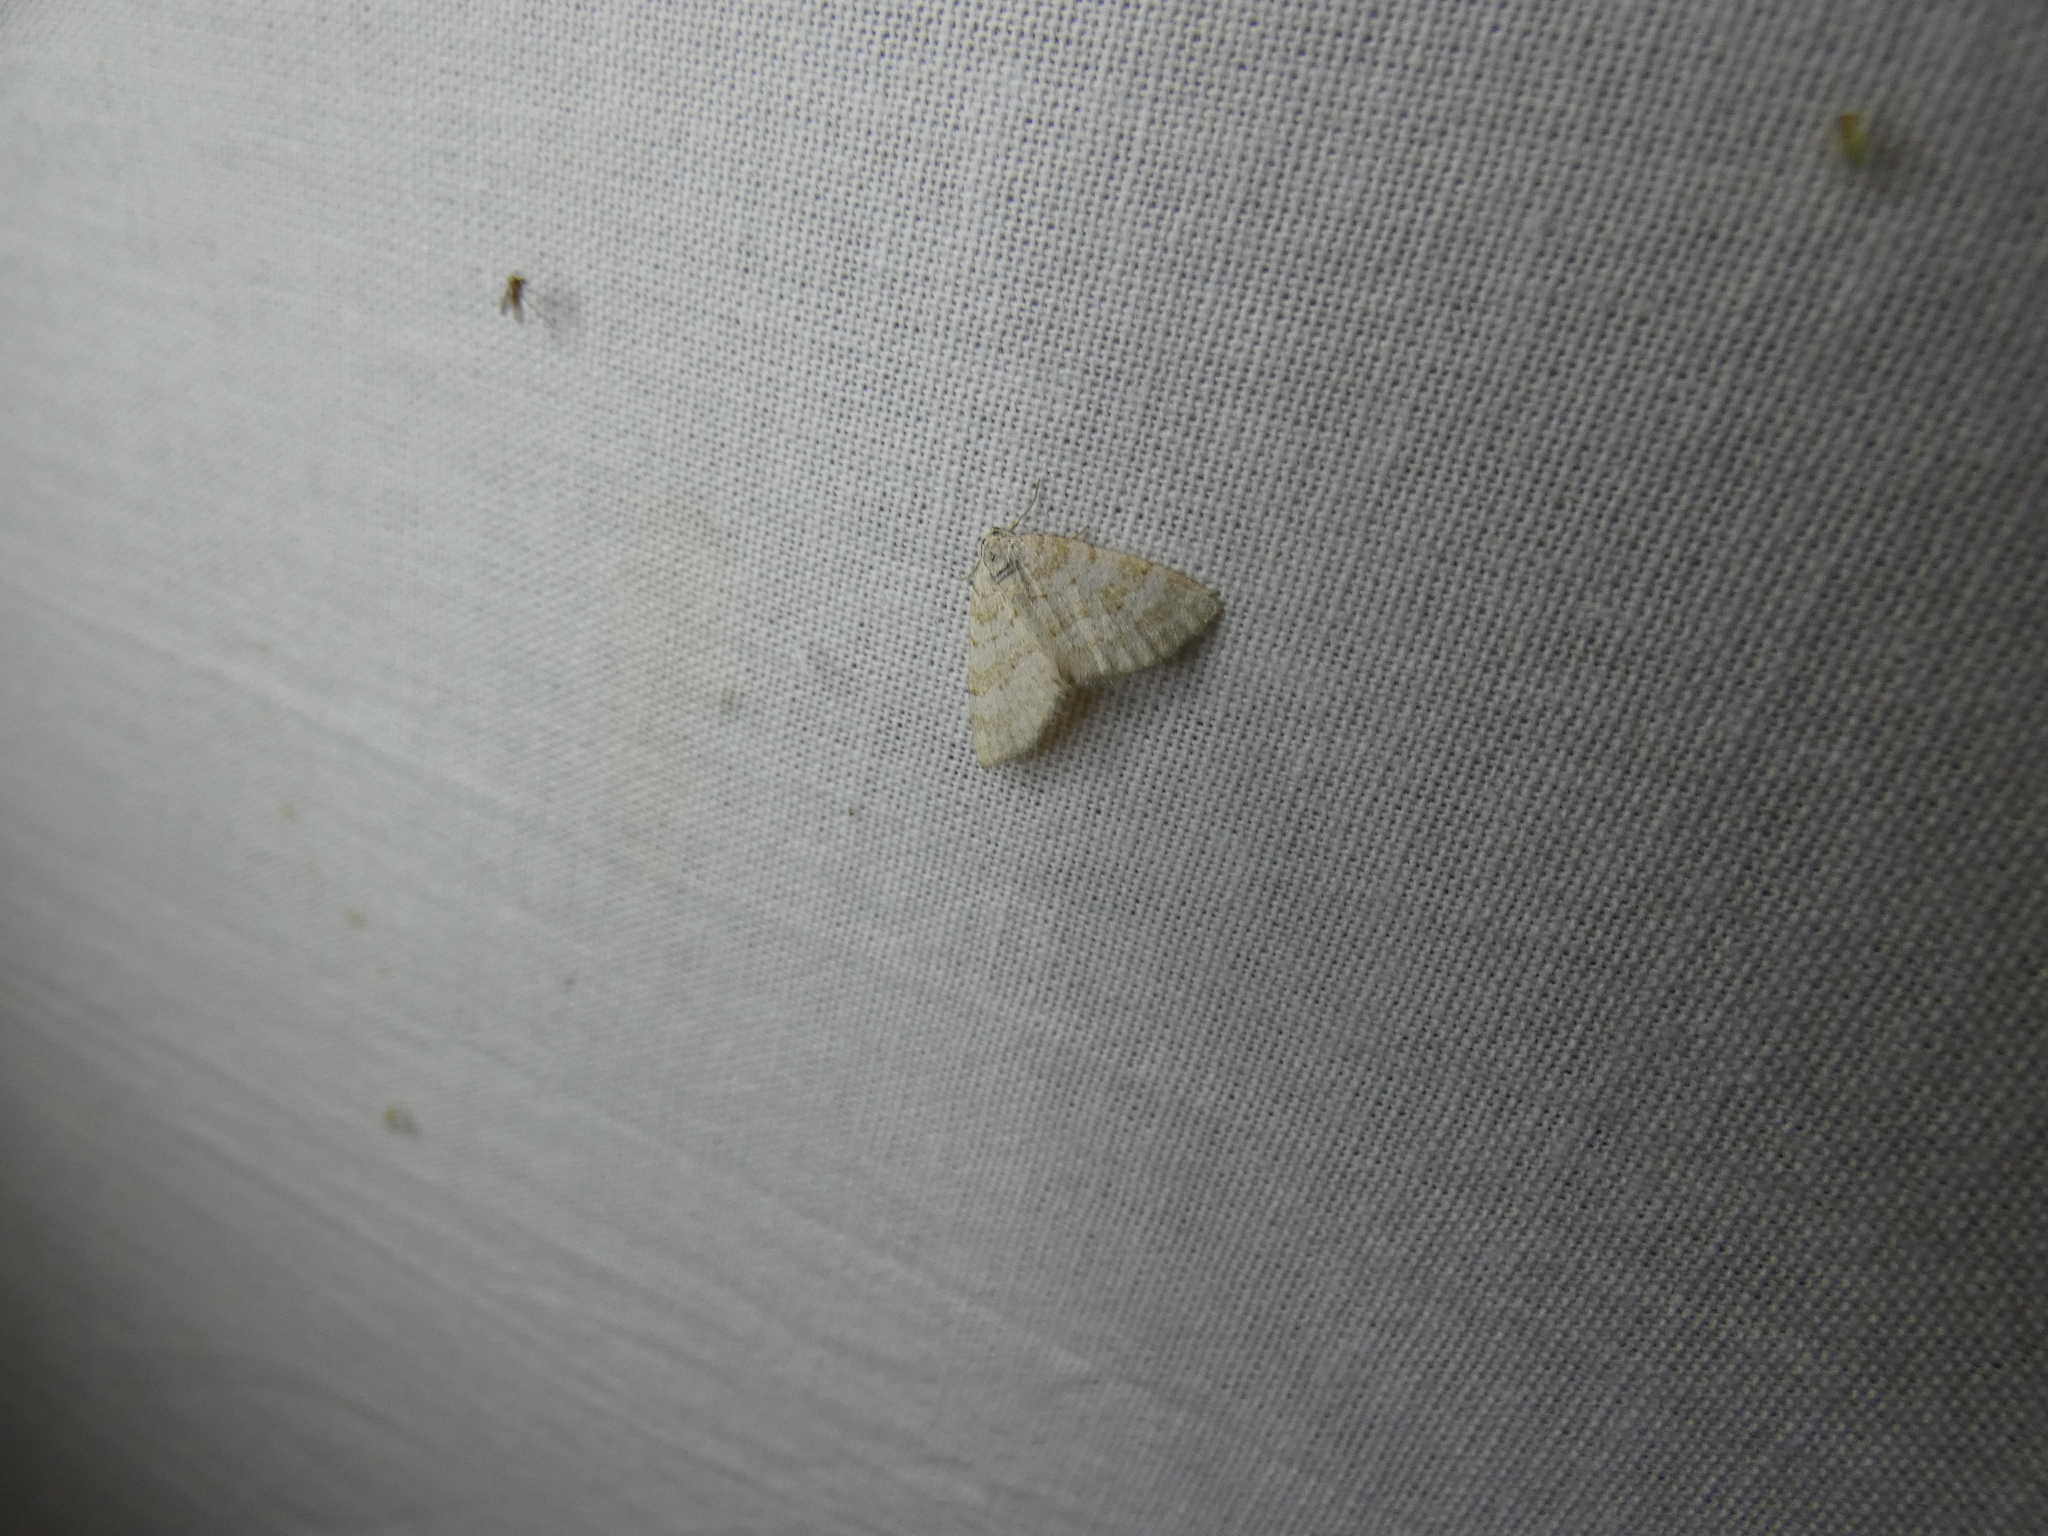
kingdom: Animalia
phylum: Arthropoda
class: Insecta
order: Lepidoptera
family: Geometridae
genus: Perizoma
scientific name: Perizoma albulata
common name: Grass rivulet
